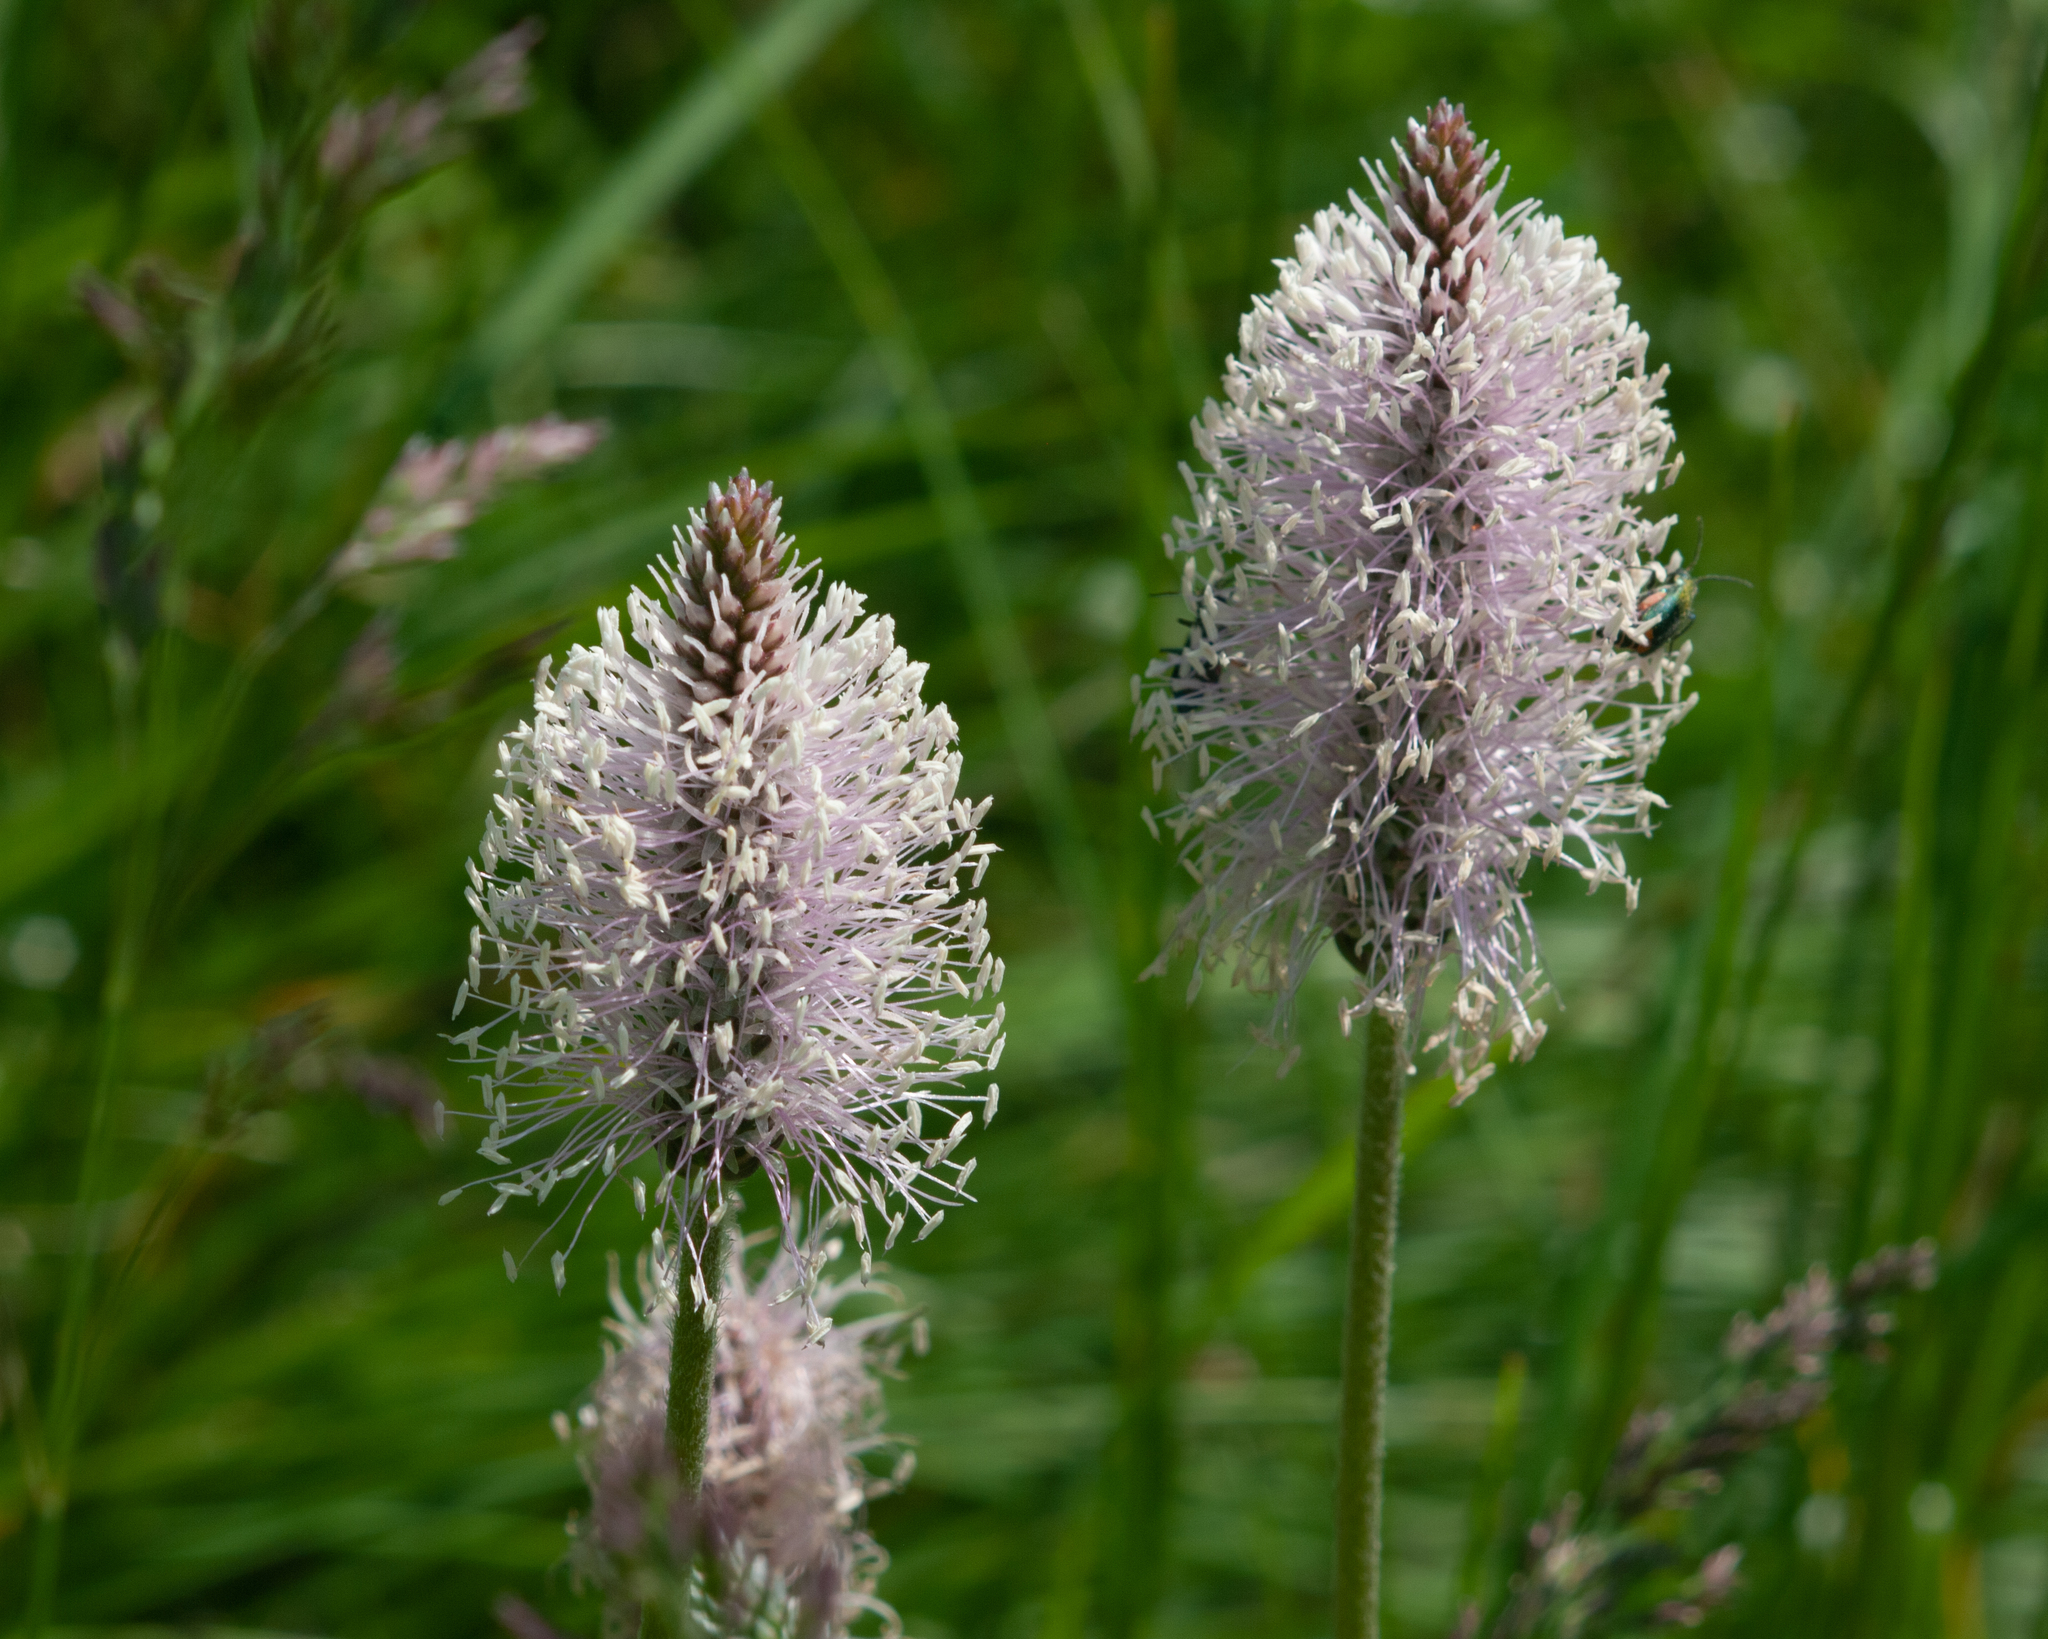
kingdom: Plantae
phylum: Tracheophyta
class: Magnoliopsida
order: Lamiales
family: Plantaginaceae
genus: Plantago
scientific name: Plantago media
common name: Hoary plantain
